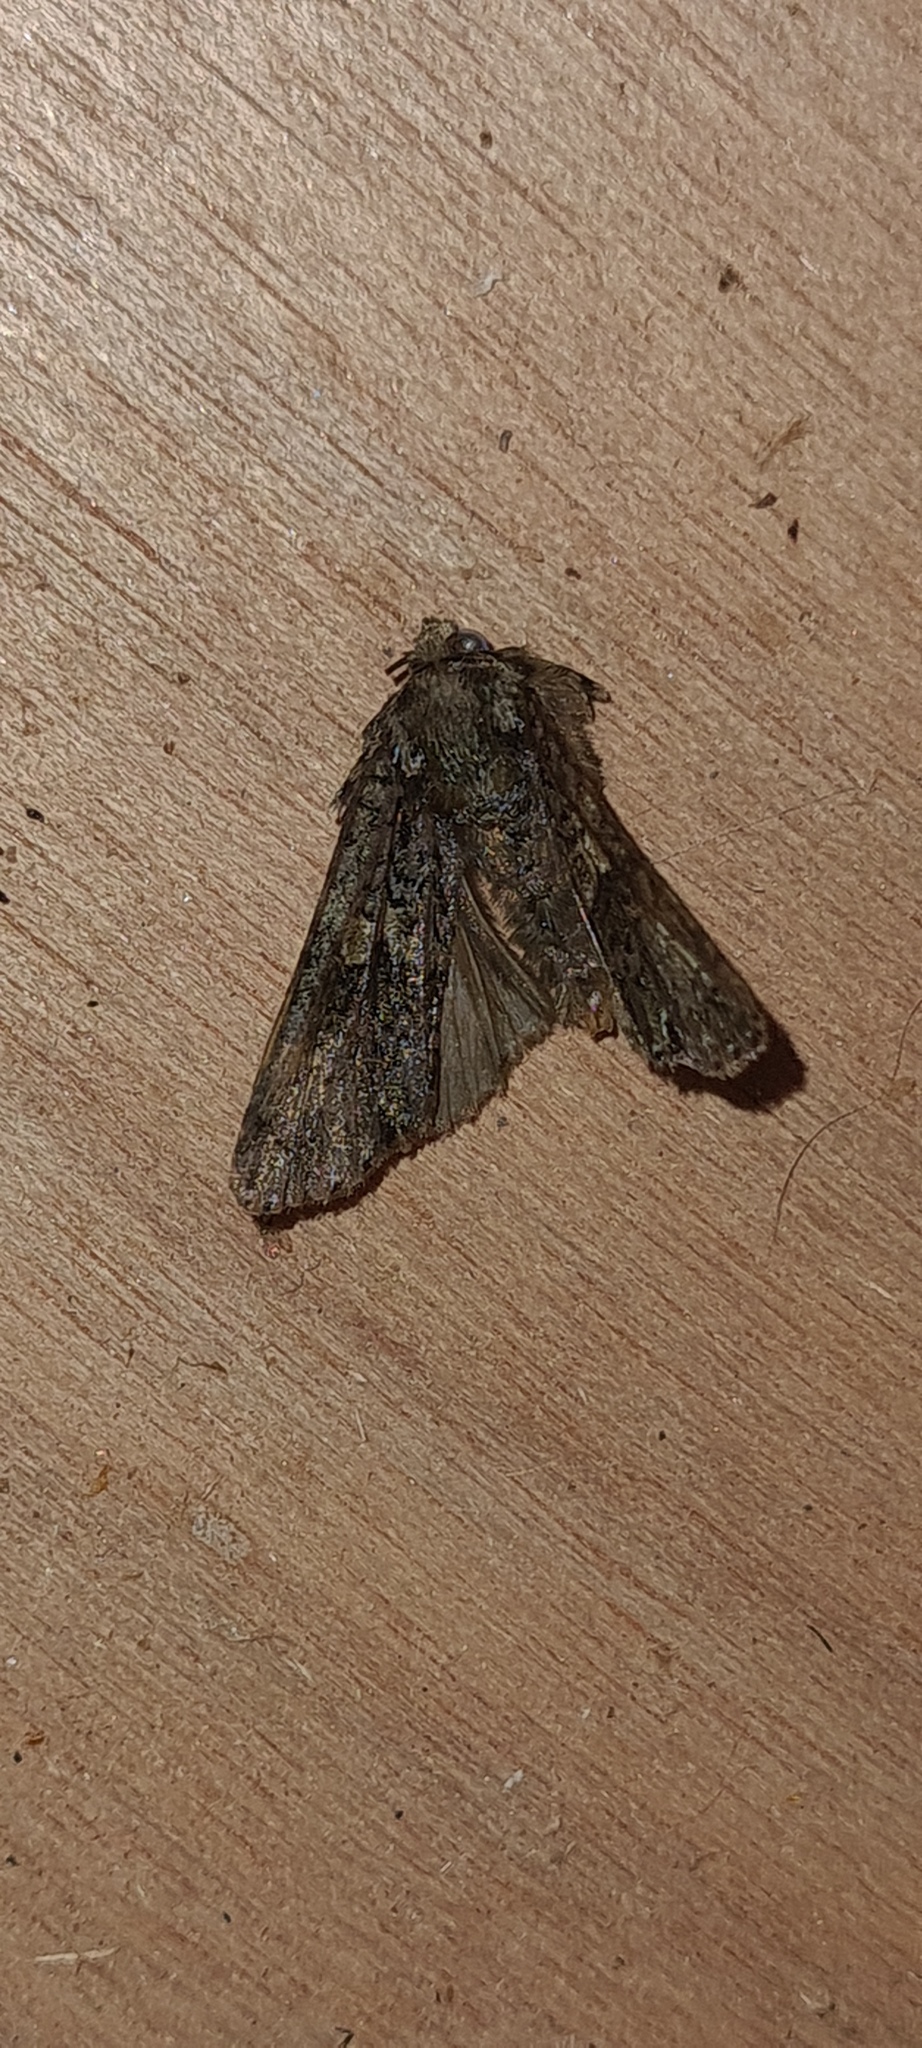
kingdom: Animalia
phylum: Arthropoda
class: Insecta
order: Lepidoptera
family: Noctuidae
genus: Craniophora
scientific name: Craniophora ligustri
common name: Coronet
